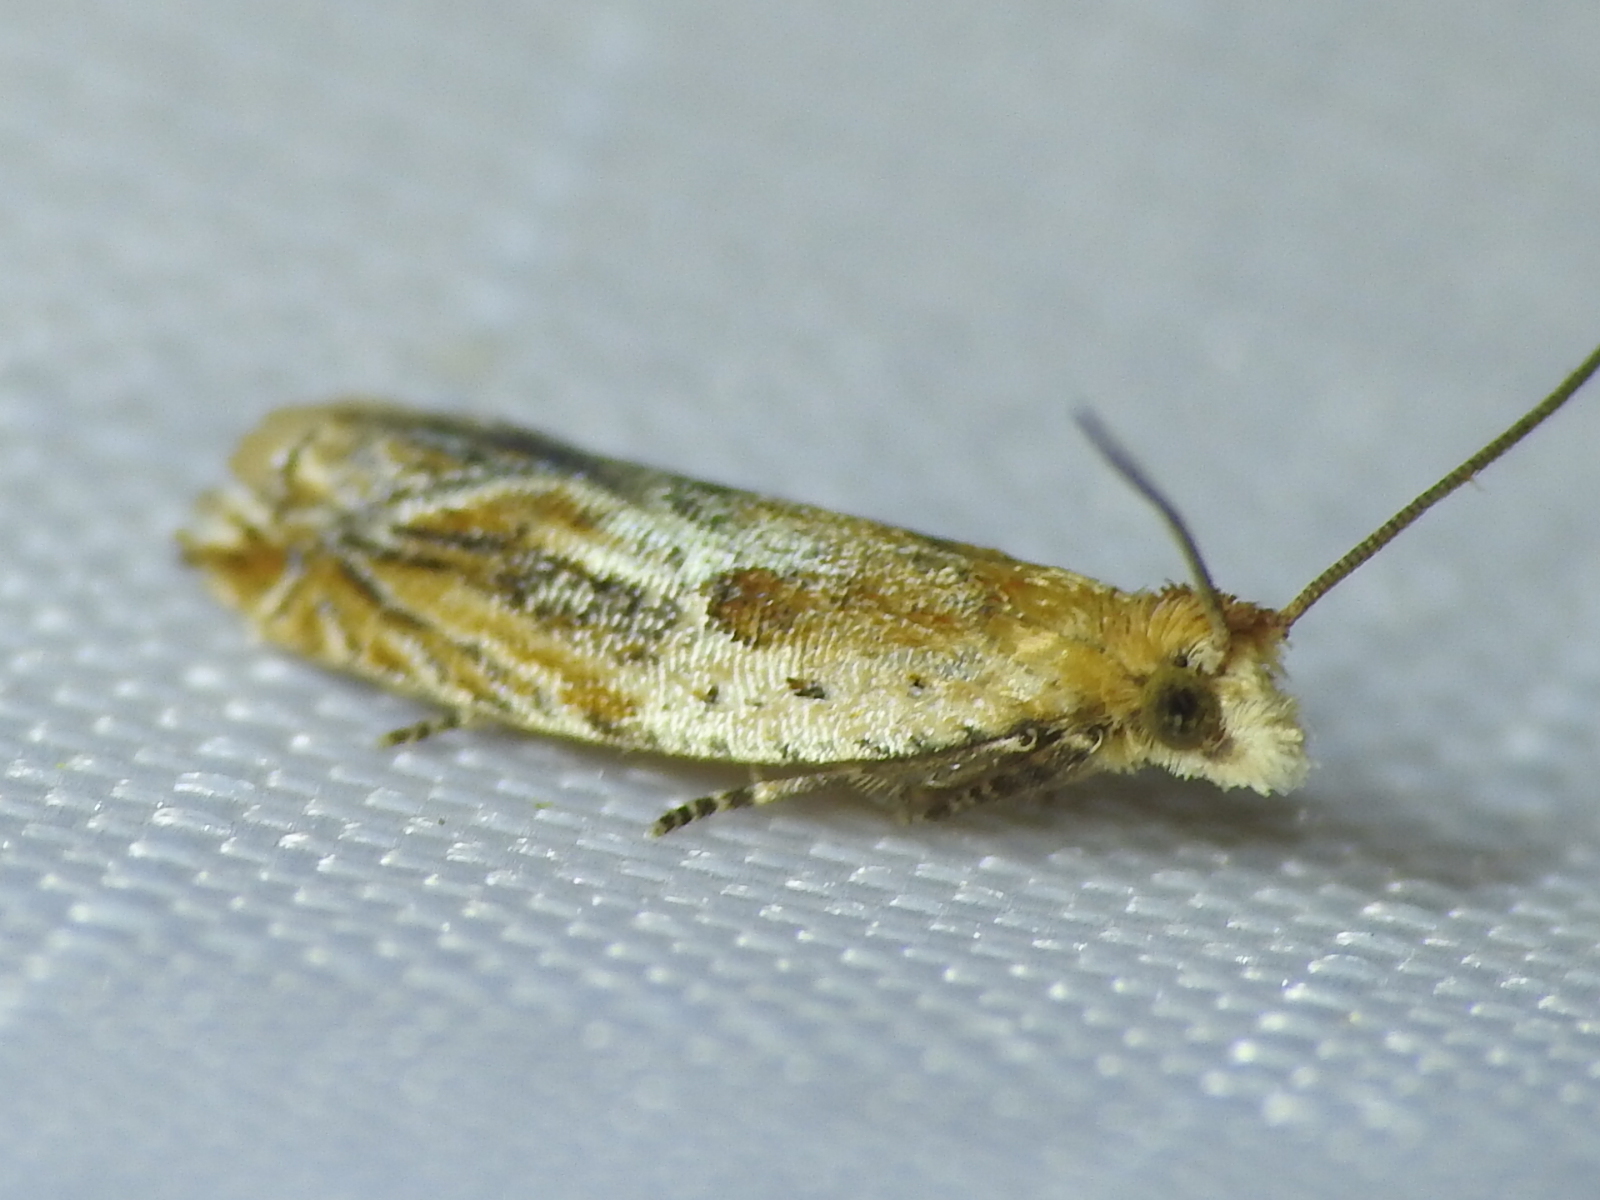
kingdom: Animalia
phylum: Arthropoda
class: Insecta
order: Lepidoptera
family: Tortricidae
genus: Ancylis
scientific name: Ancylis comptana
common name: Little roller
